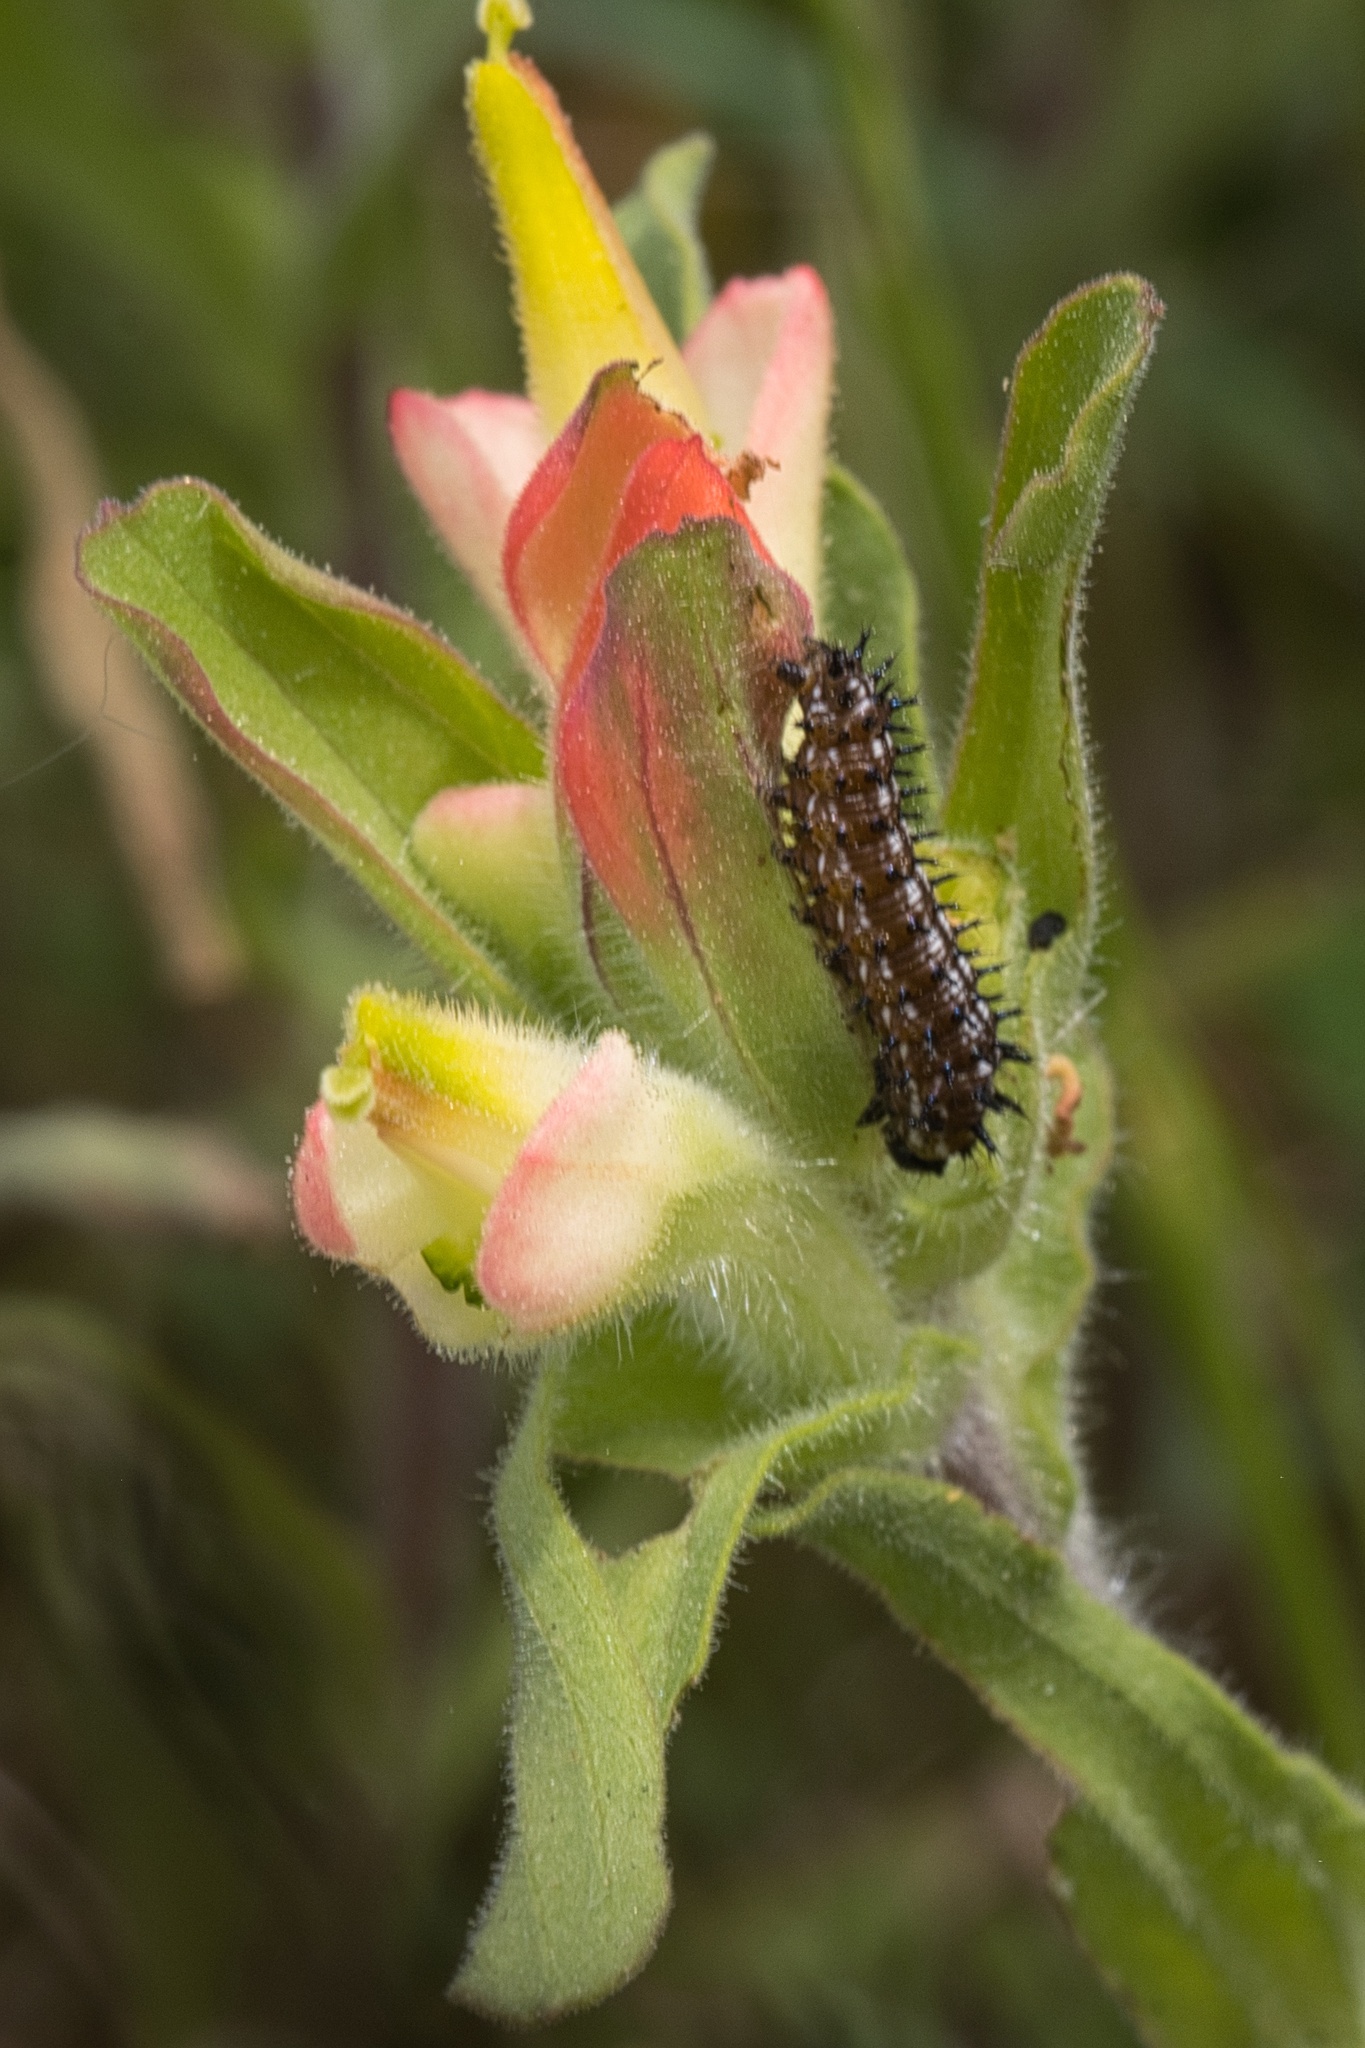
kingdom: Animalia
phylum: Arthropoda
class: Insecta
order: Lepidoptera
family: Nymphalidae
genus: Junonia
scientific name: Junonia coenia
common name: Common buckeye
